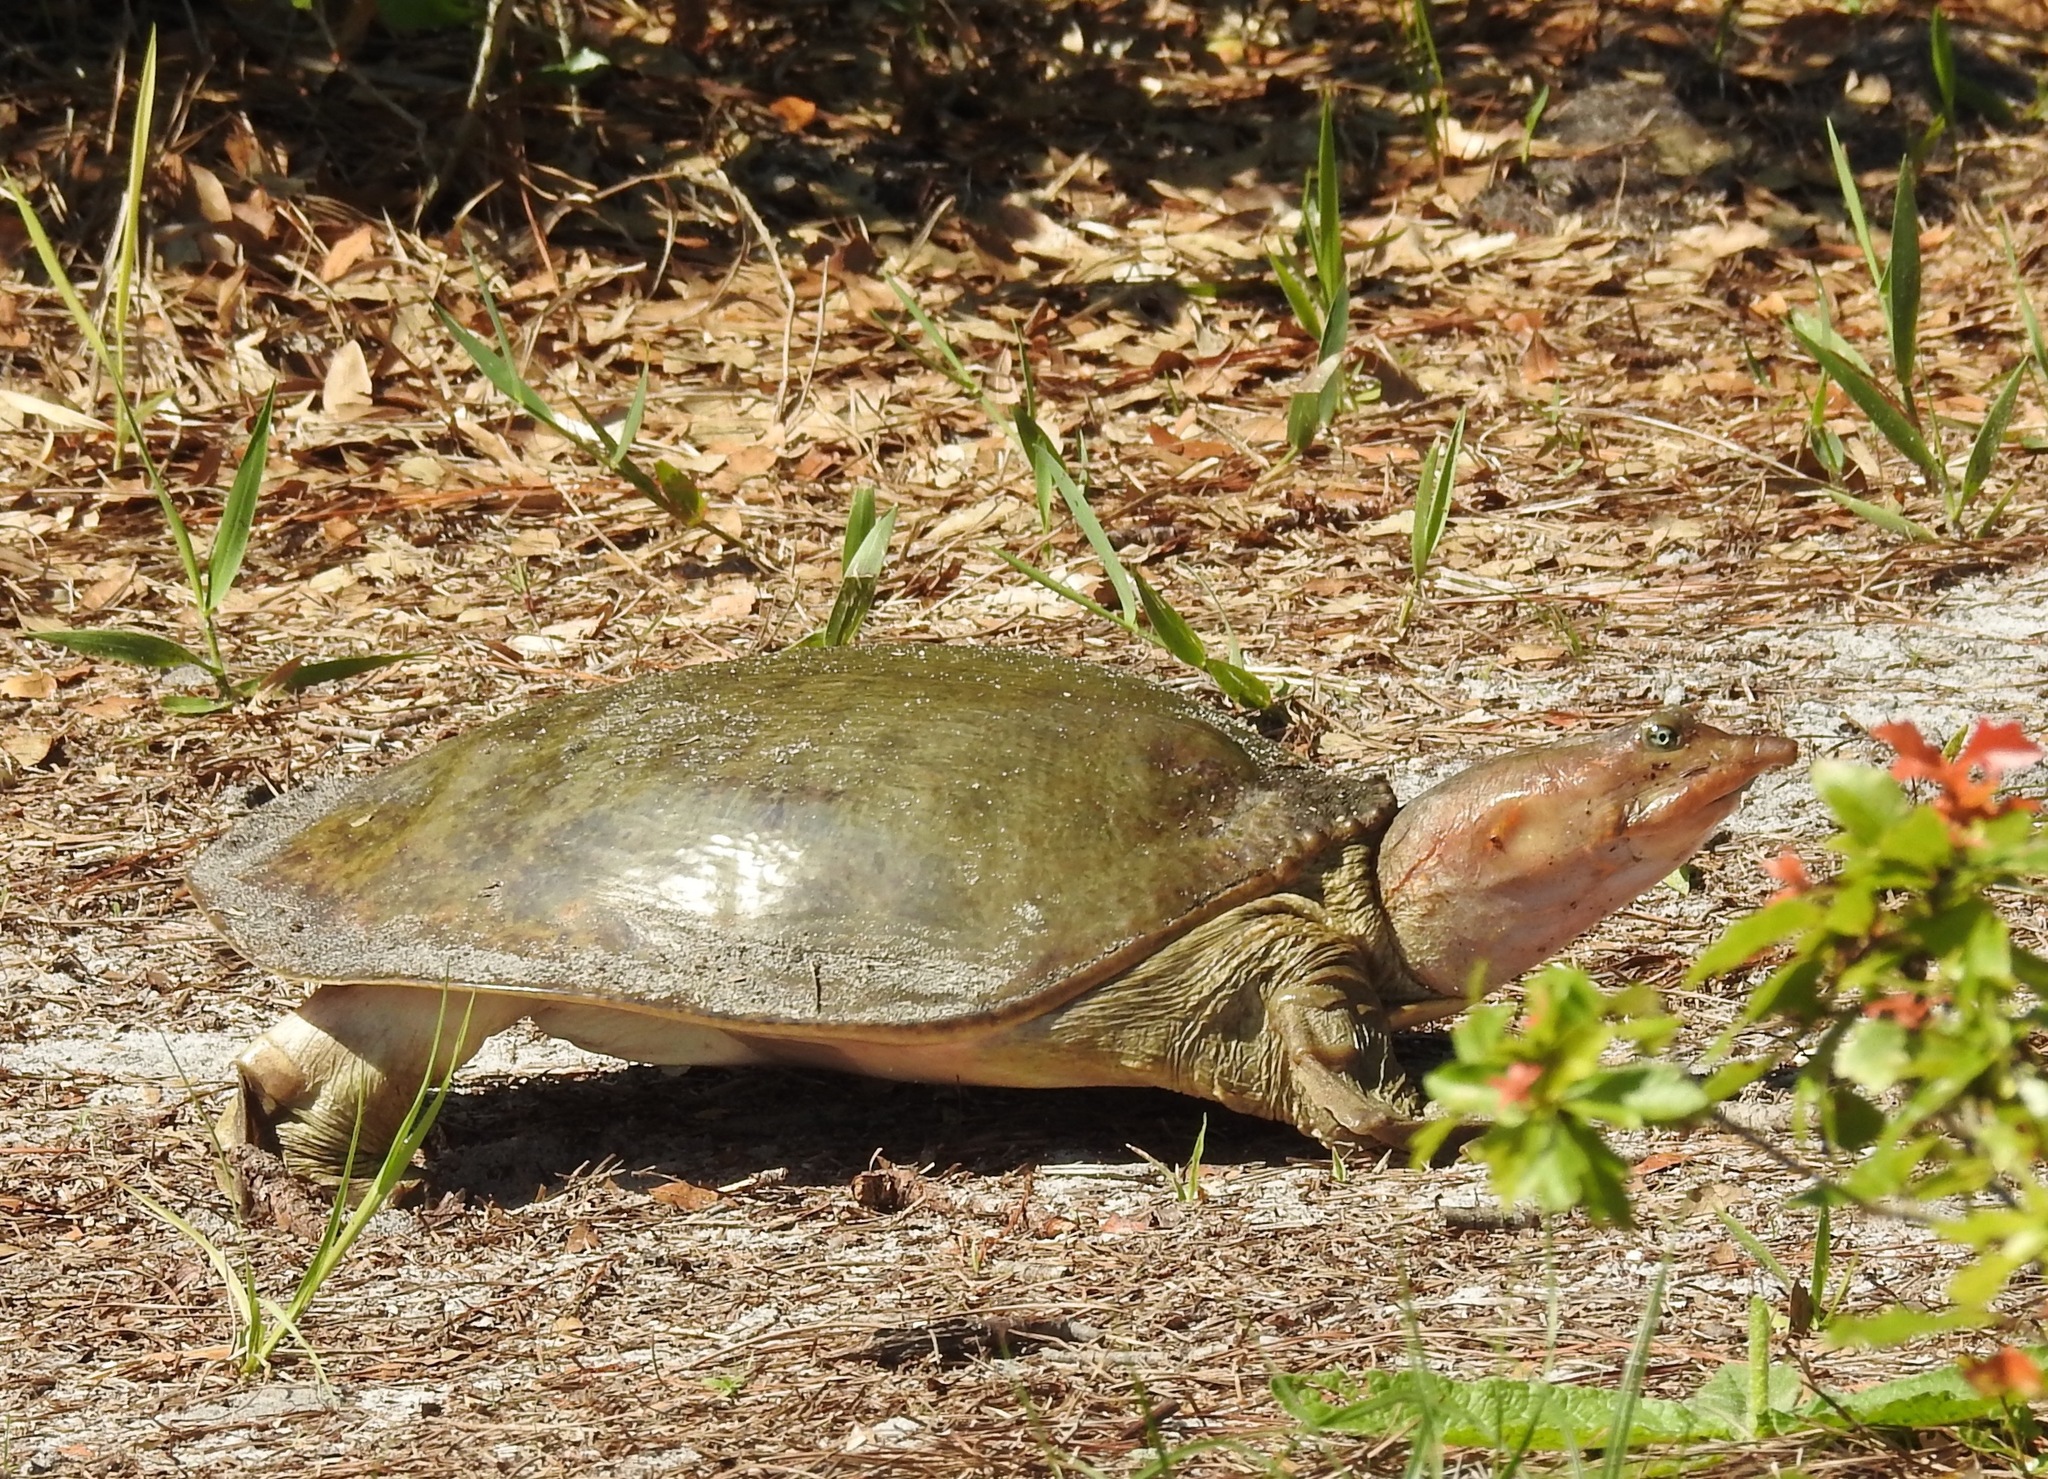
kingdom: Animalia
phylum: Chordata
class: Testudines
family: Trionychidae
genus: Apalone
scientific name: Apalone ferox
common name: Florida softshell turtle
